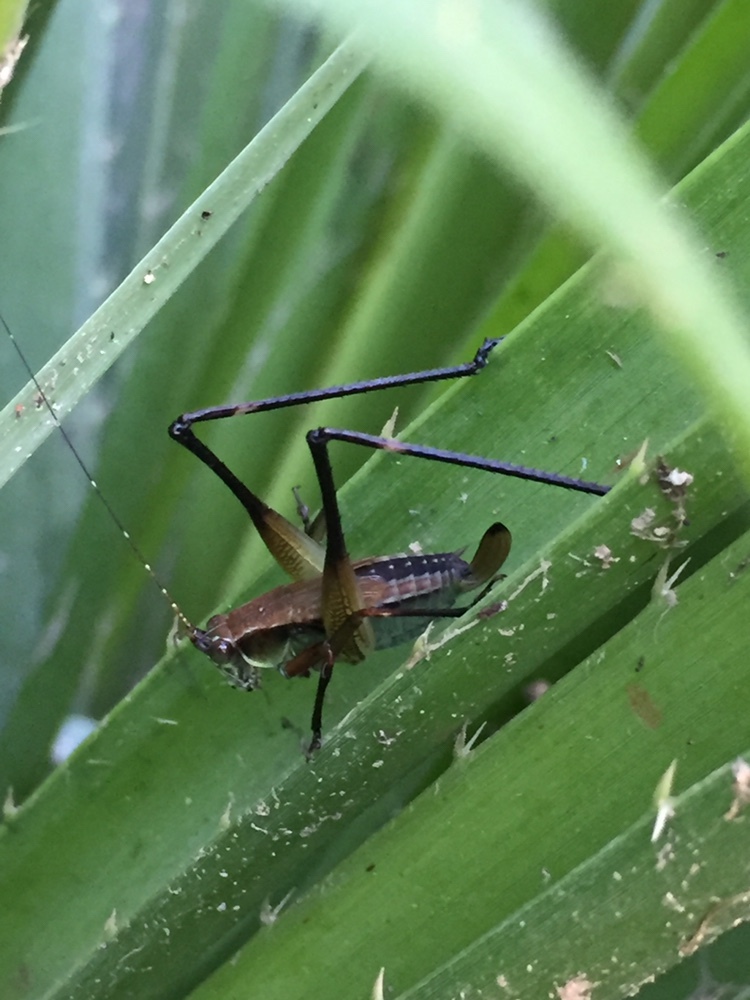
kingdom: Animalia
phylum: Arthropoda
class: Insecta
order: Orthoptera
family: Tettigoniidae
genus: Theudoria
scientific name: Theudoria melanocnemis
